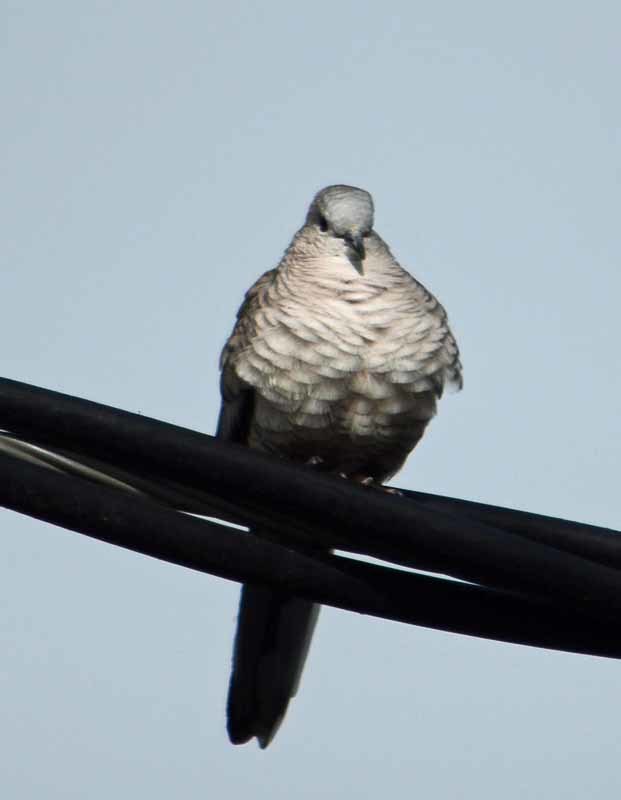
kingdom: Animalia
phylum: Chordata
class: Aves
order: Columbiformes
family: Columbidae
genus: Columbina
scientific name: Columbina inca
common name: Inca dove
